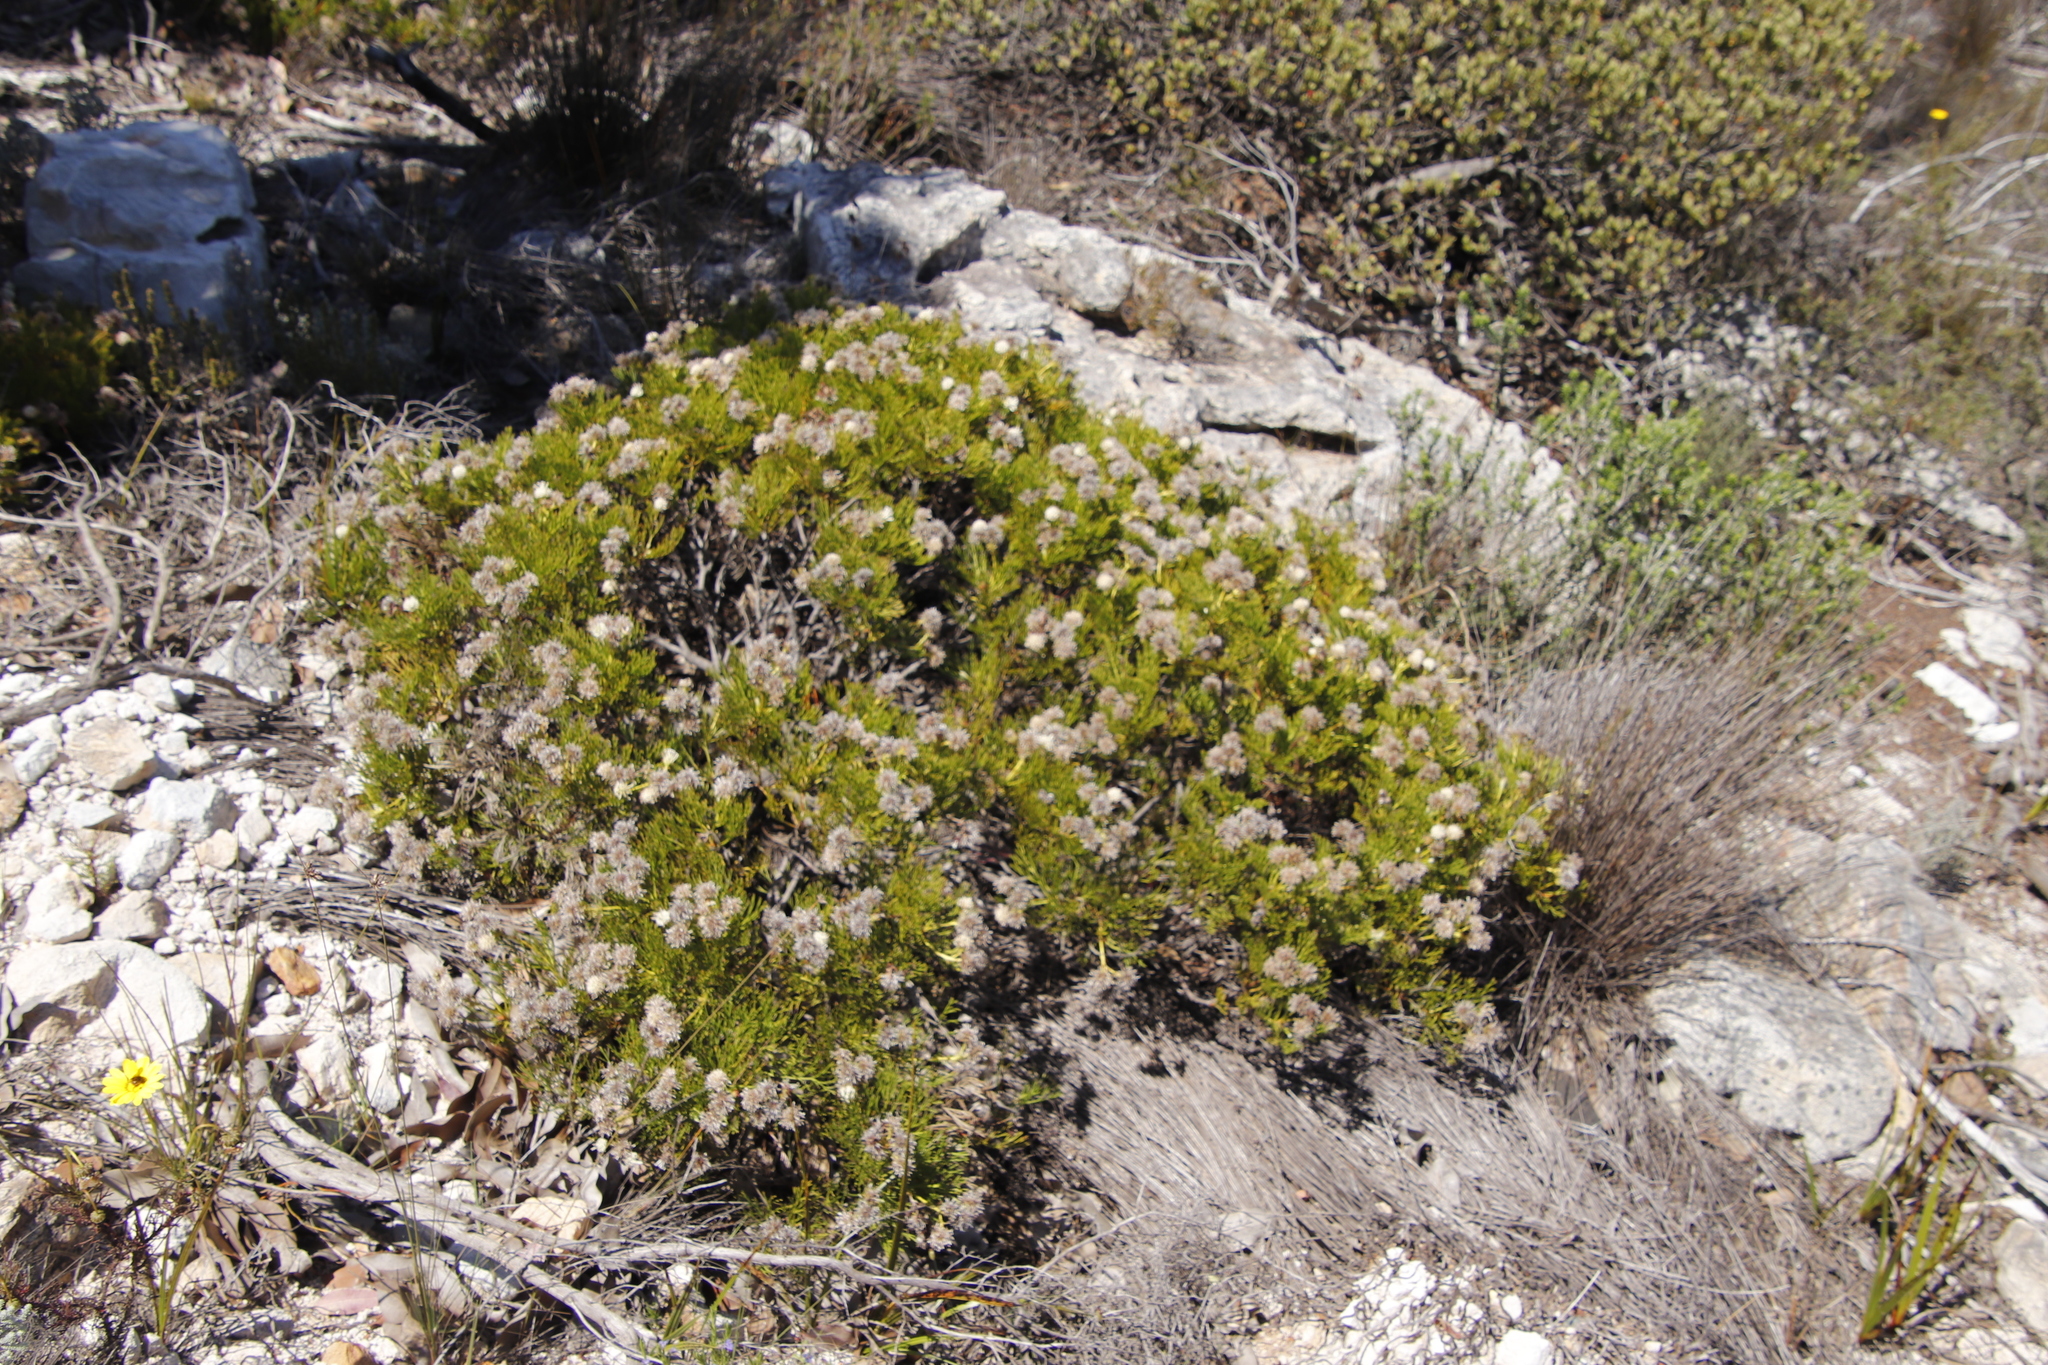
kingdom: Plantae
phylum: Tracheophyta
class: Magnoliopsida
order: Proteales
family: Proteaceae
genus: Serruria
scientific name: Serruria elongata
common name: Long-stalk spiderhead
